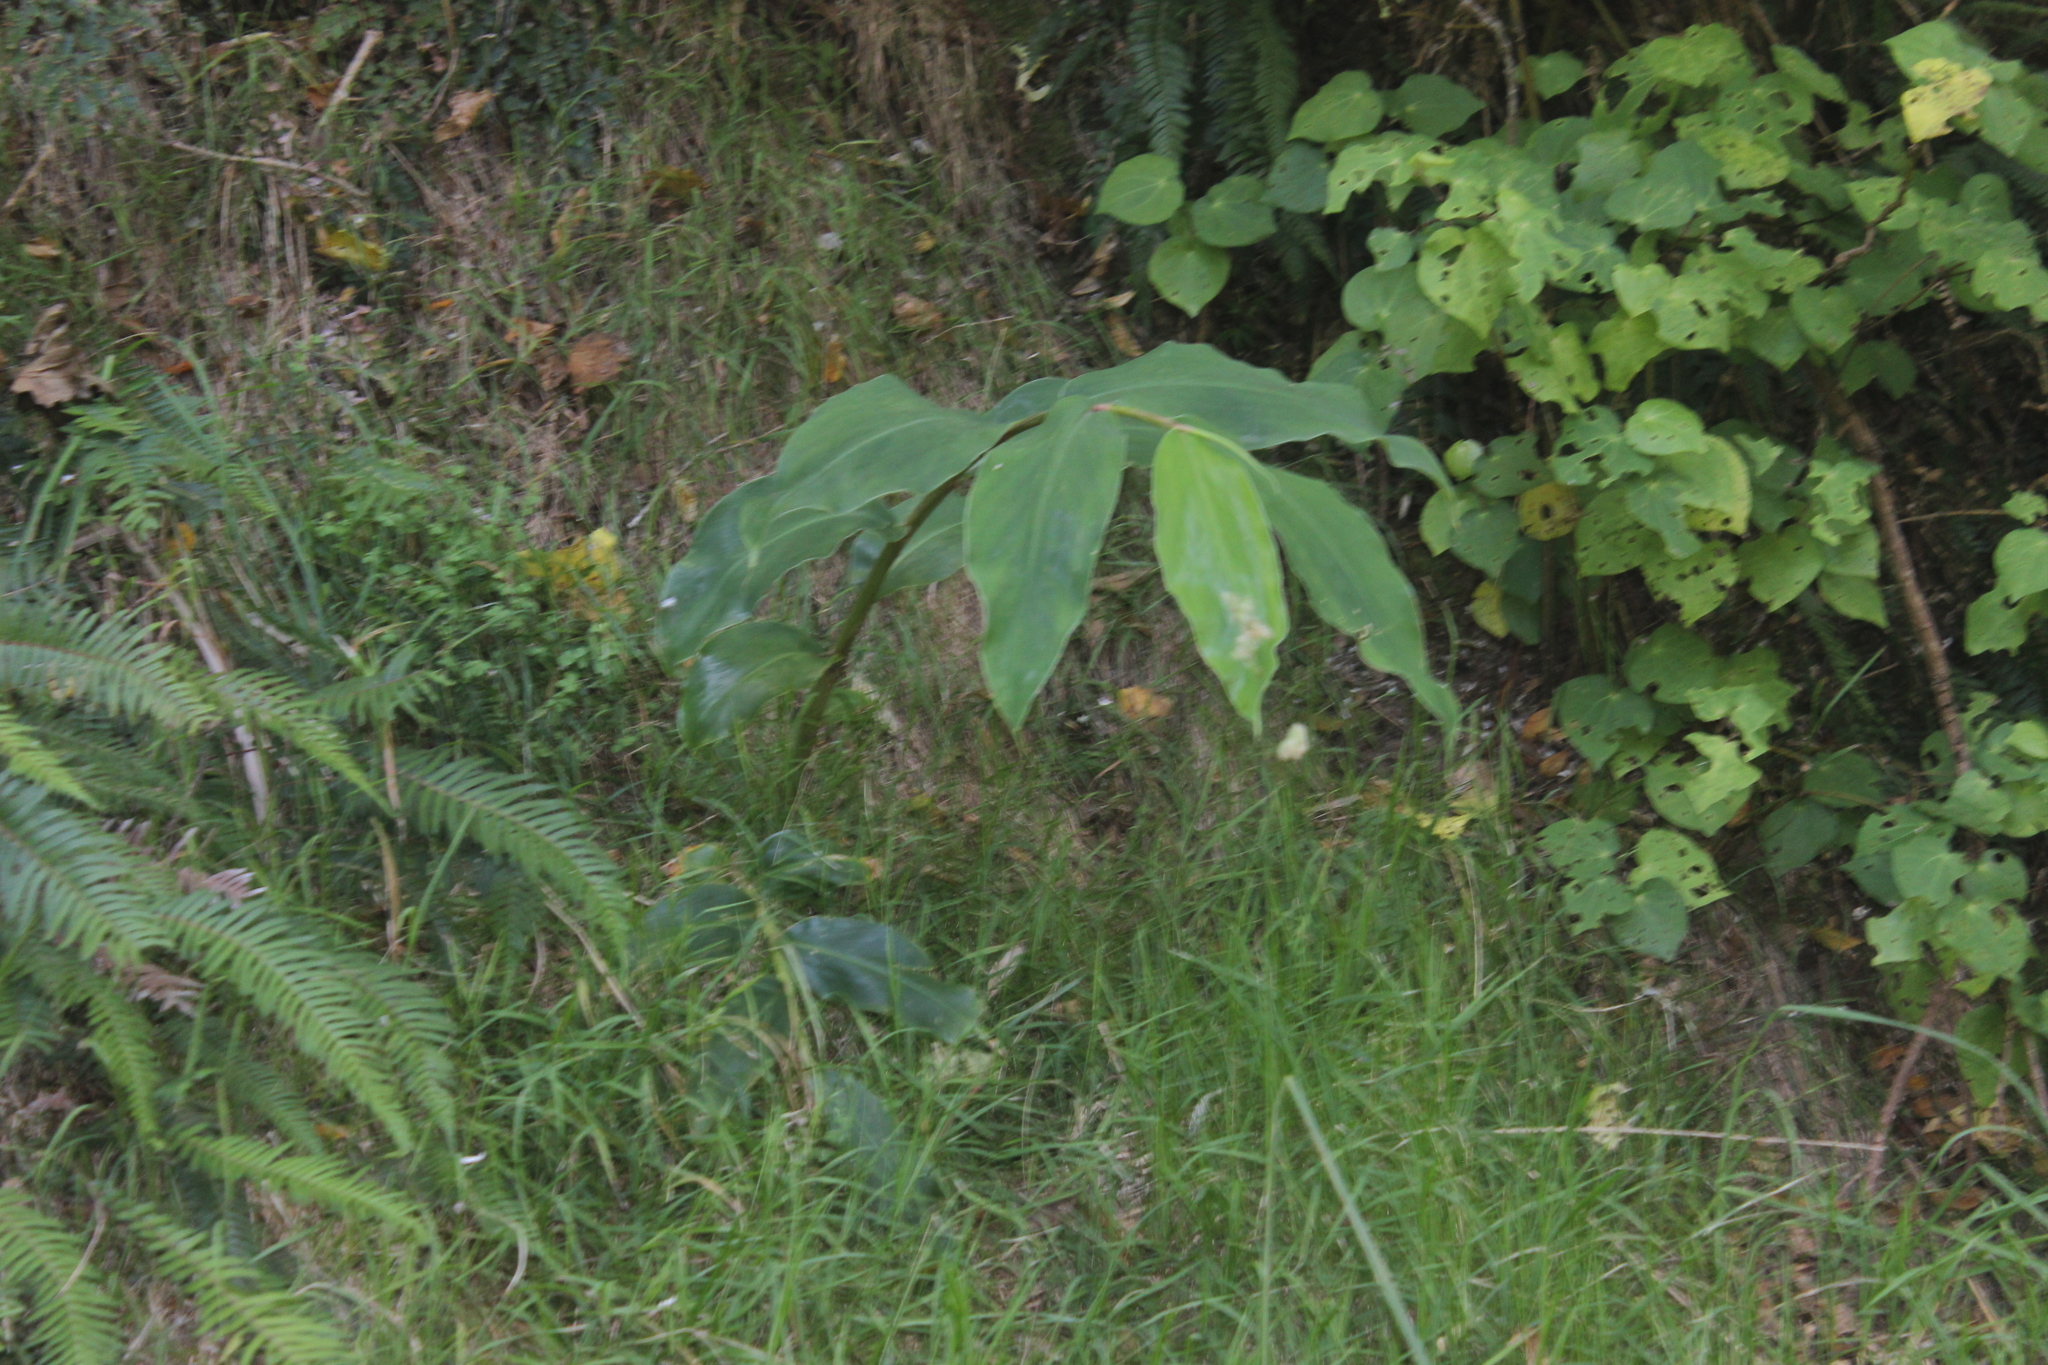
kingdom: Plantae
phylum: Tracheophyta
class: Liliopsida
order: Zingiberales
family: Zingiberaceae
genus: Hedychium
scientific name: Hedychium gardnerianum
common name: Himalayan ginger
